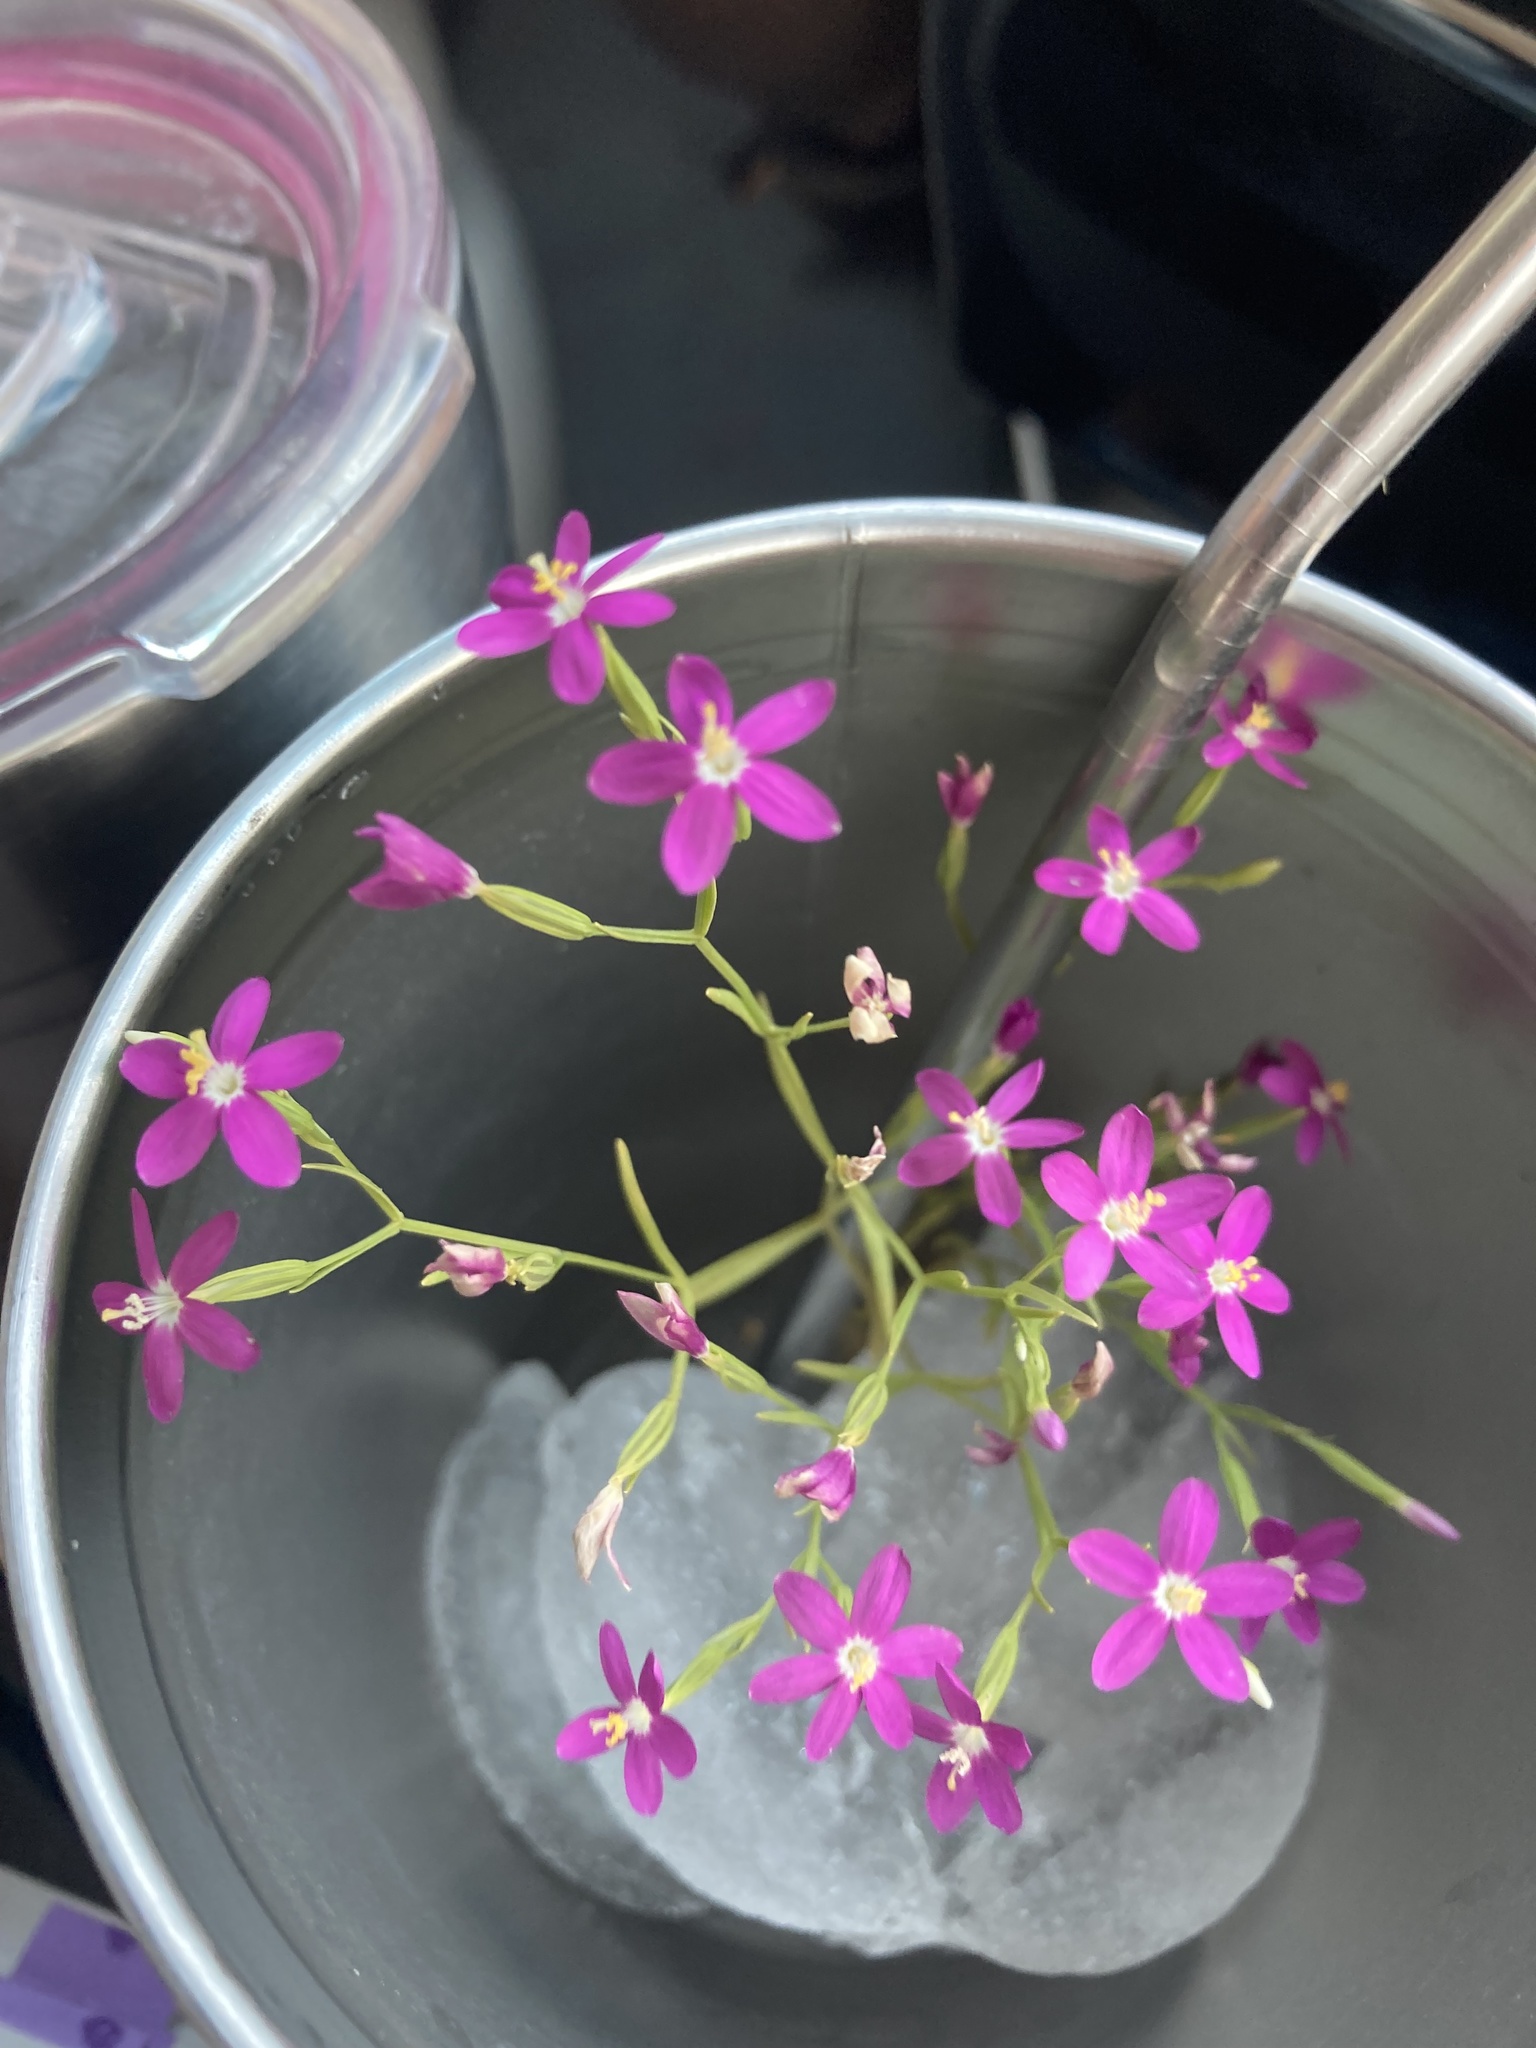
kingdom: Plantae
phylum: Tracheophyta
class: Magnoliopsida
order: Gentianales
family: Gentianaceae
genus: Zeltnera
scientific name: Zeltnera texensis
